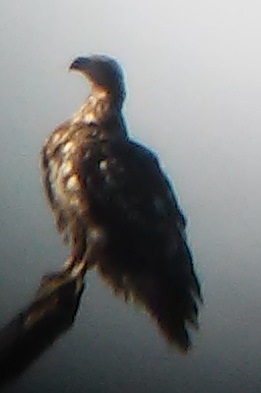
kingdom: Animalia
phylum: Chordata
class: Aves
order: Accipitriformes
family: Accipitridae
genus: Haliaeetus
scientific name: Haliaeetus leucocephalus
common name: Bald eagle
